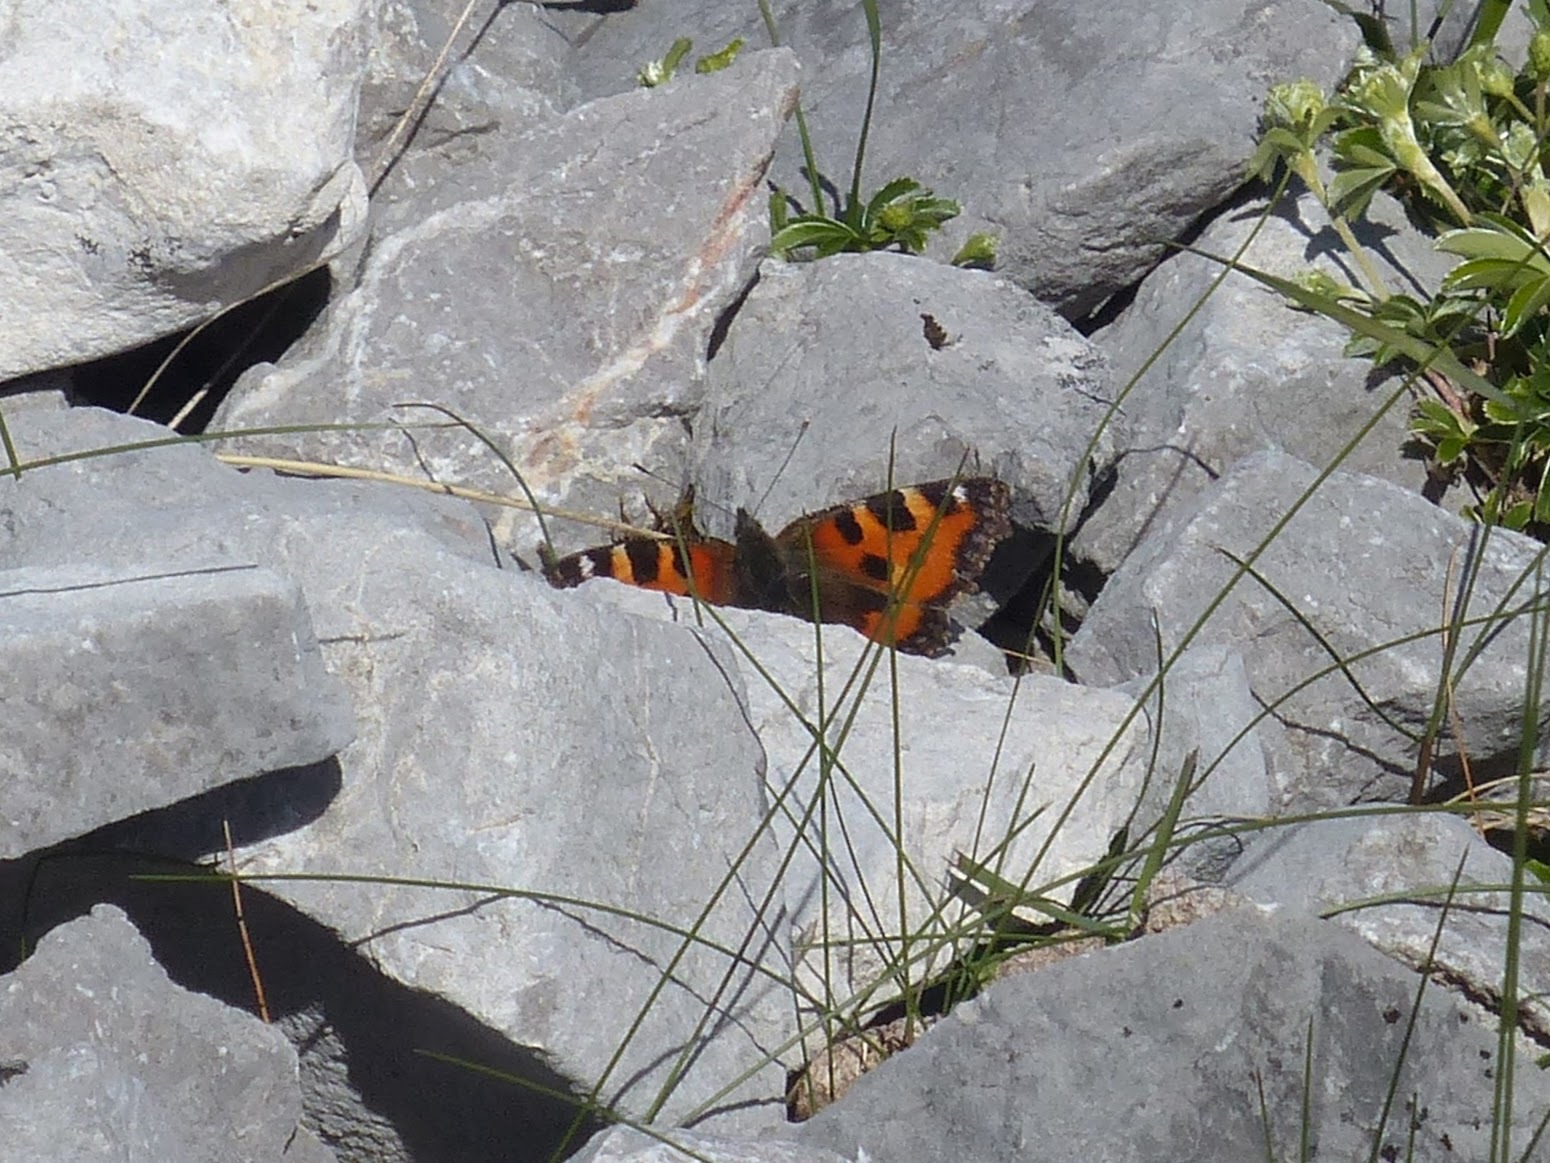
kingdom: Animalia
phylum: Arthropoda
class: Insecta
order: Lepidoptera
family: Nymphalidae
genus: Aglais
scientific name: Aglais urticae
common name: Small tortoiseshell
